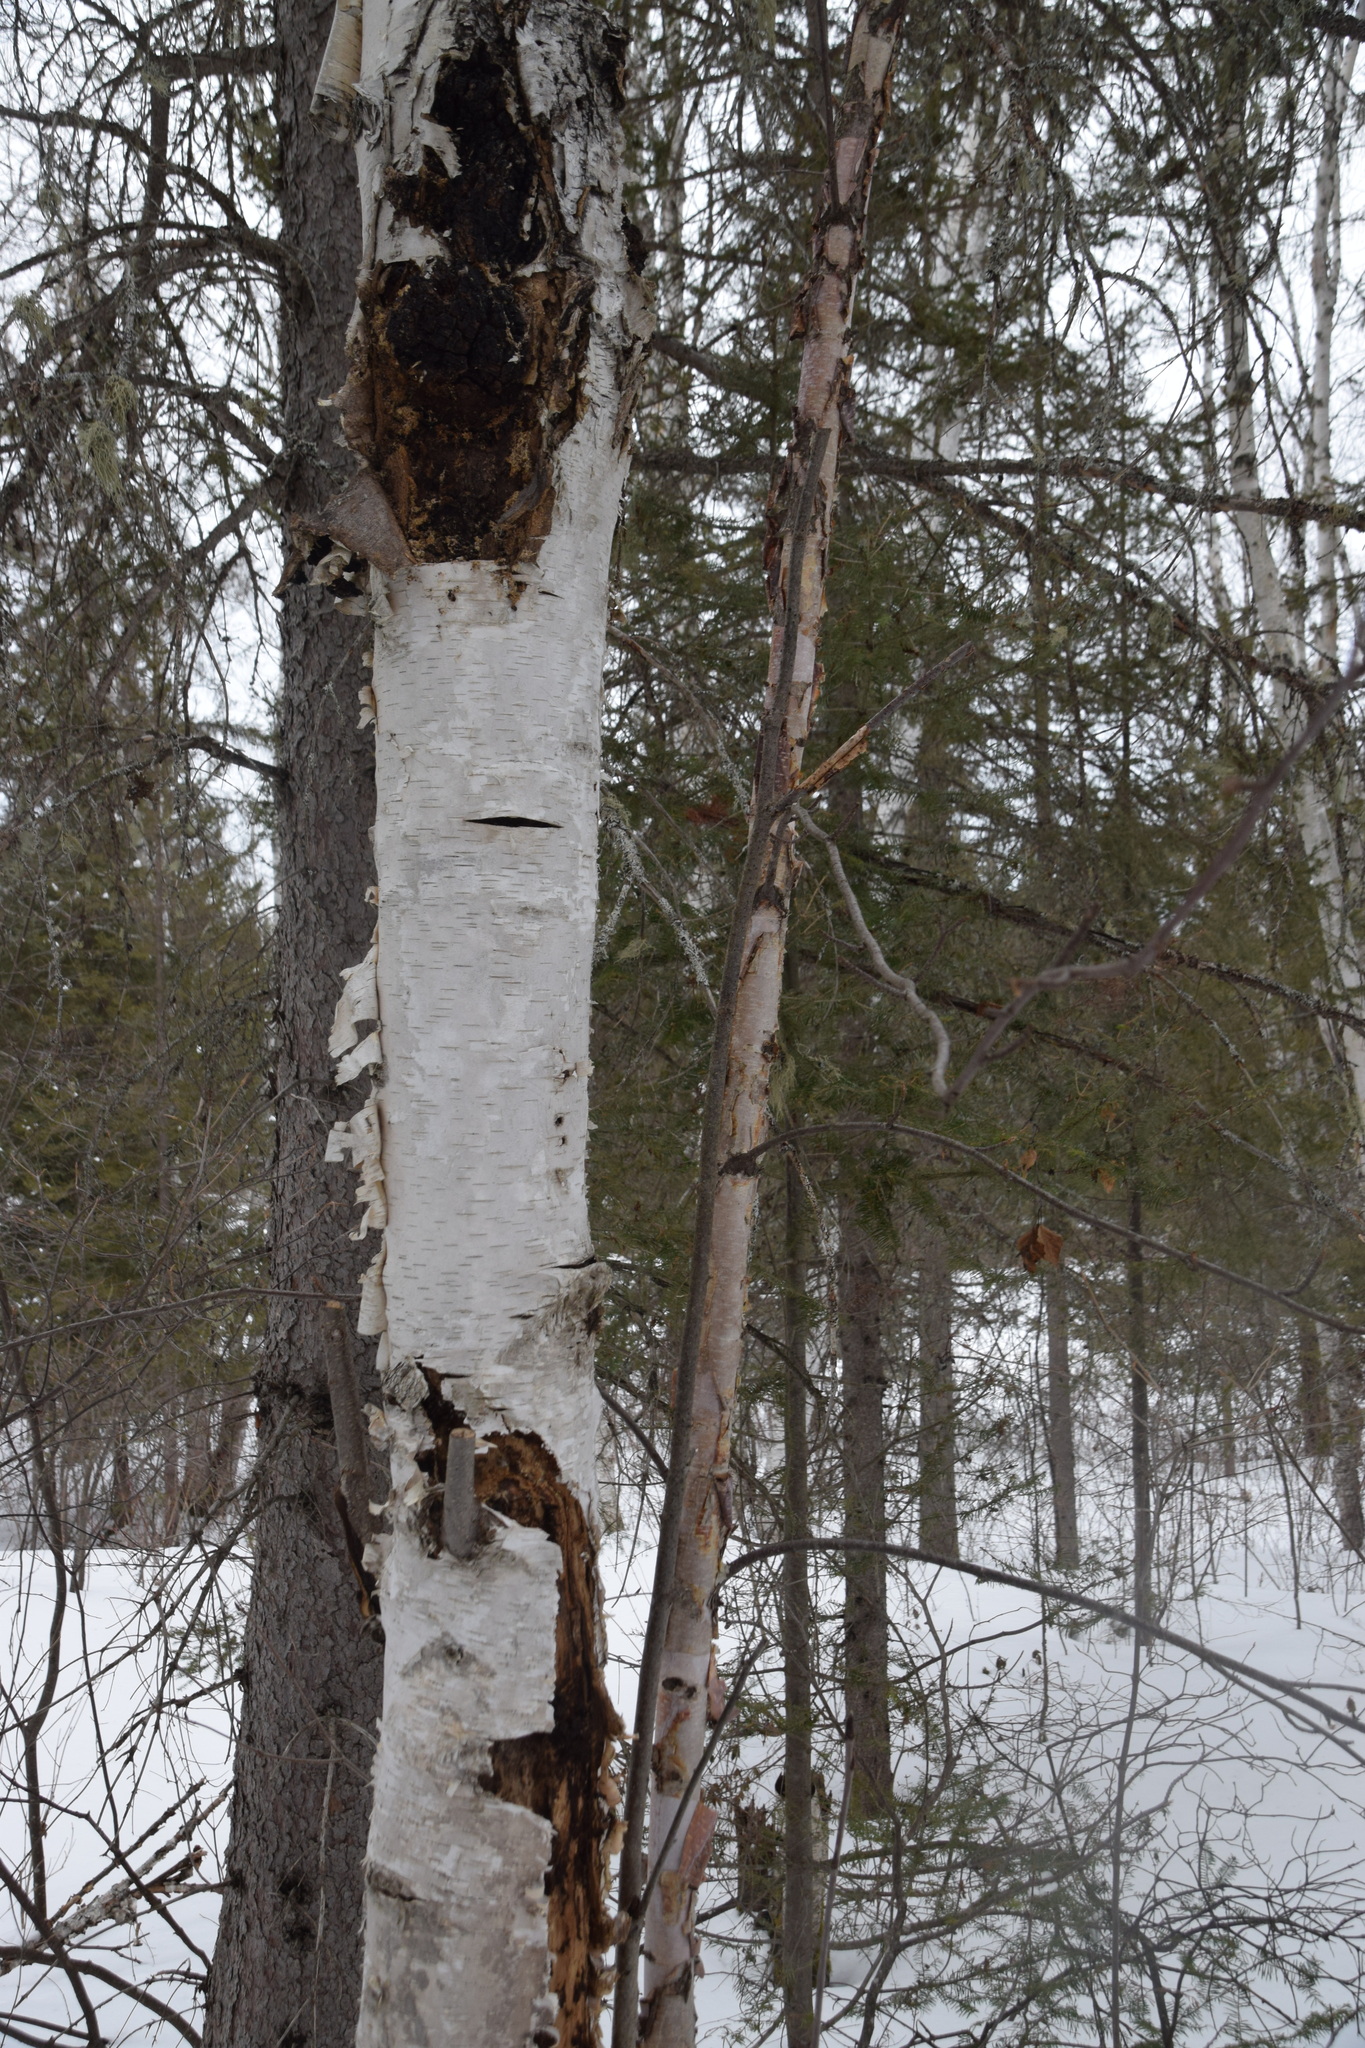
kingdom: Fungi
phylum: Basidiomycota
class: Agaricomycetes
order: Hymenochaetales
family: Hymenochaetaceae
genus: Inonotus
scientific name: Inonotus obliquus
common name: Chaga
